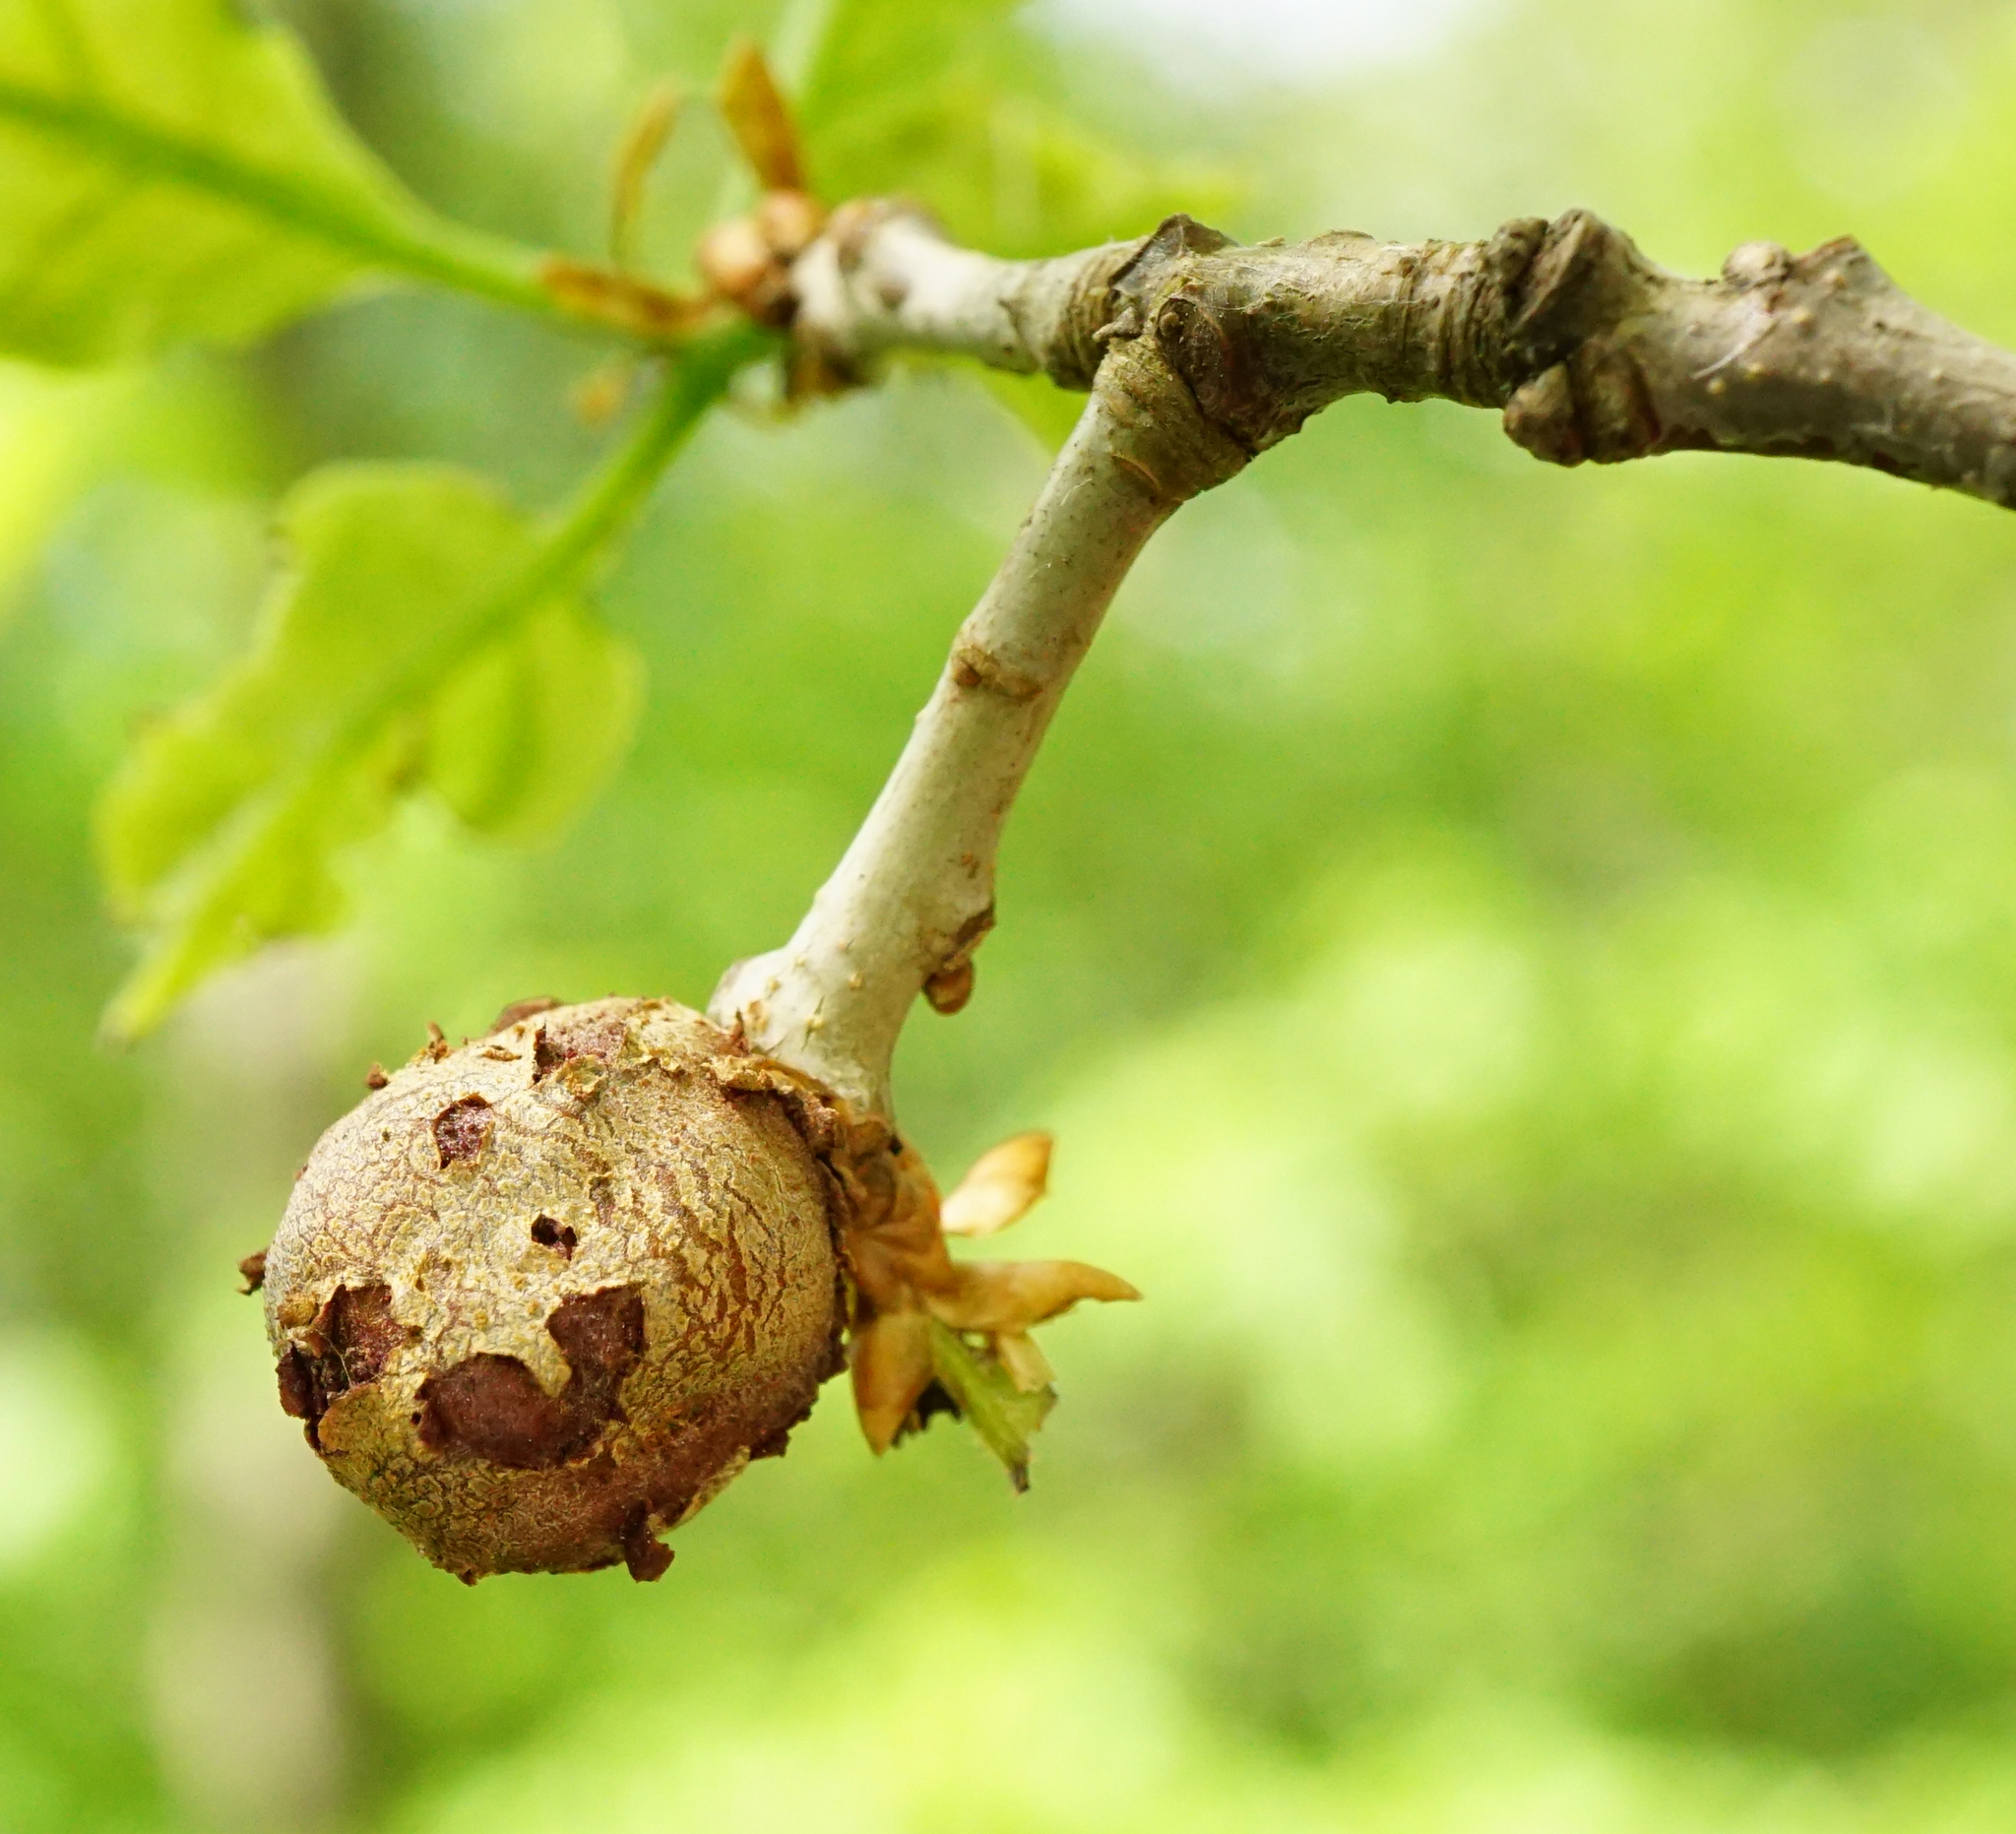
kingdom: Animalia
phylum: Arthropoda
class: Insecta
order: Hymenoptera
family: Cynipidae
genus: Andricus
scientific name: Andricus lignicolus
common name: Cola-nut gall
